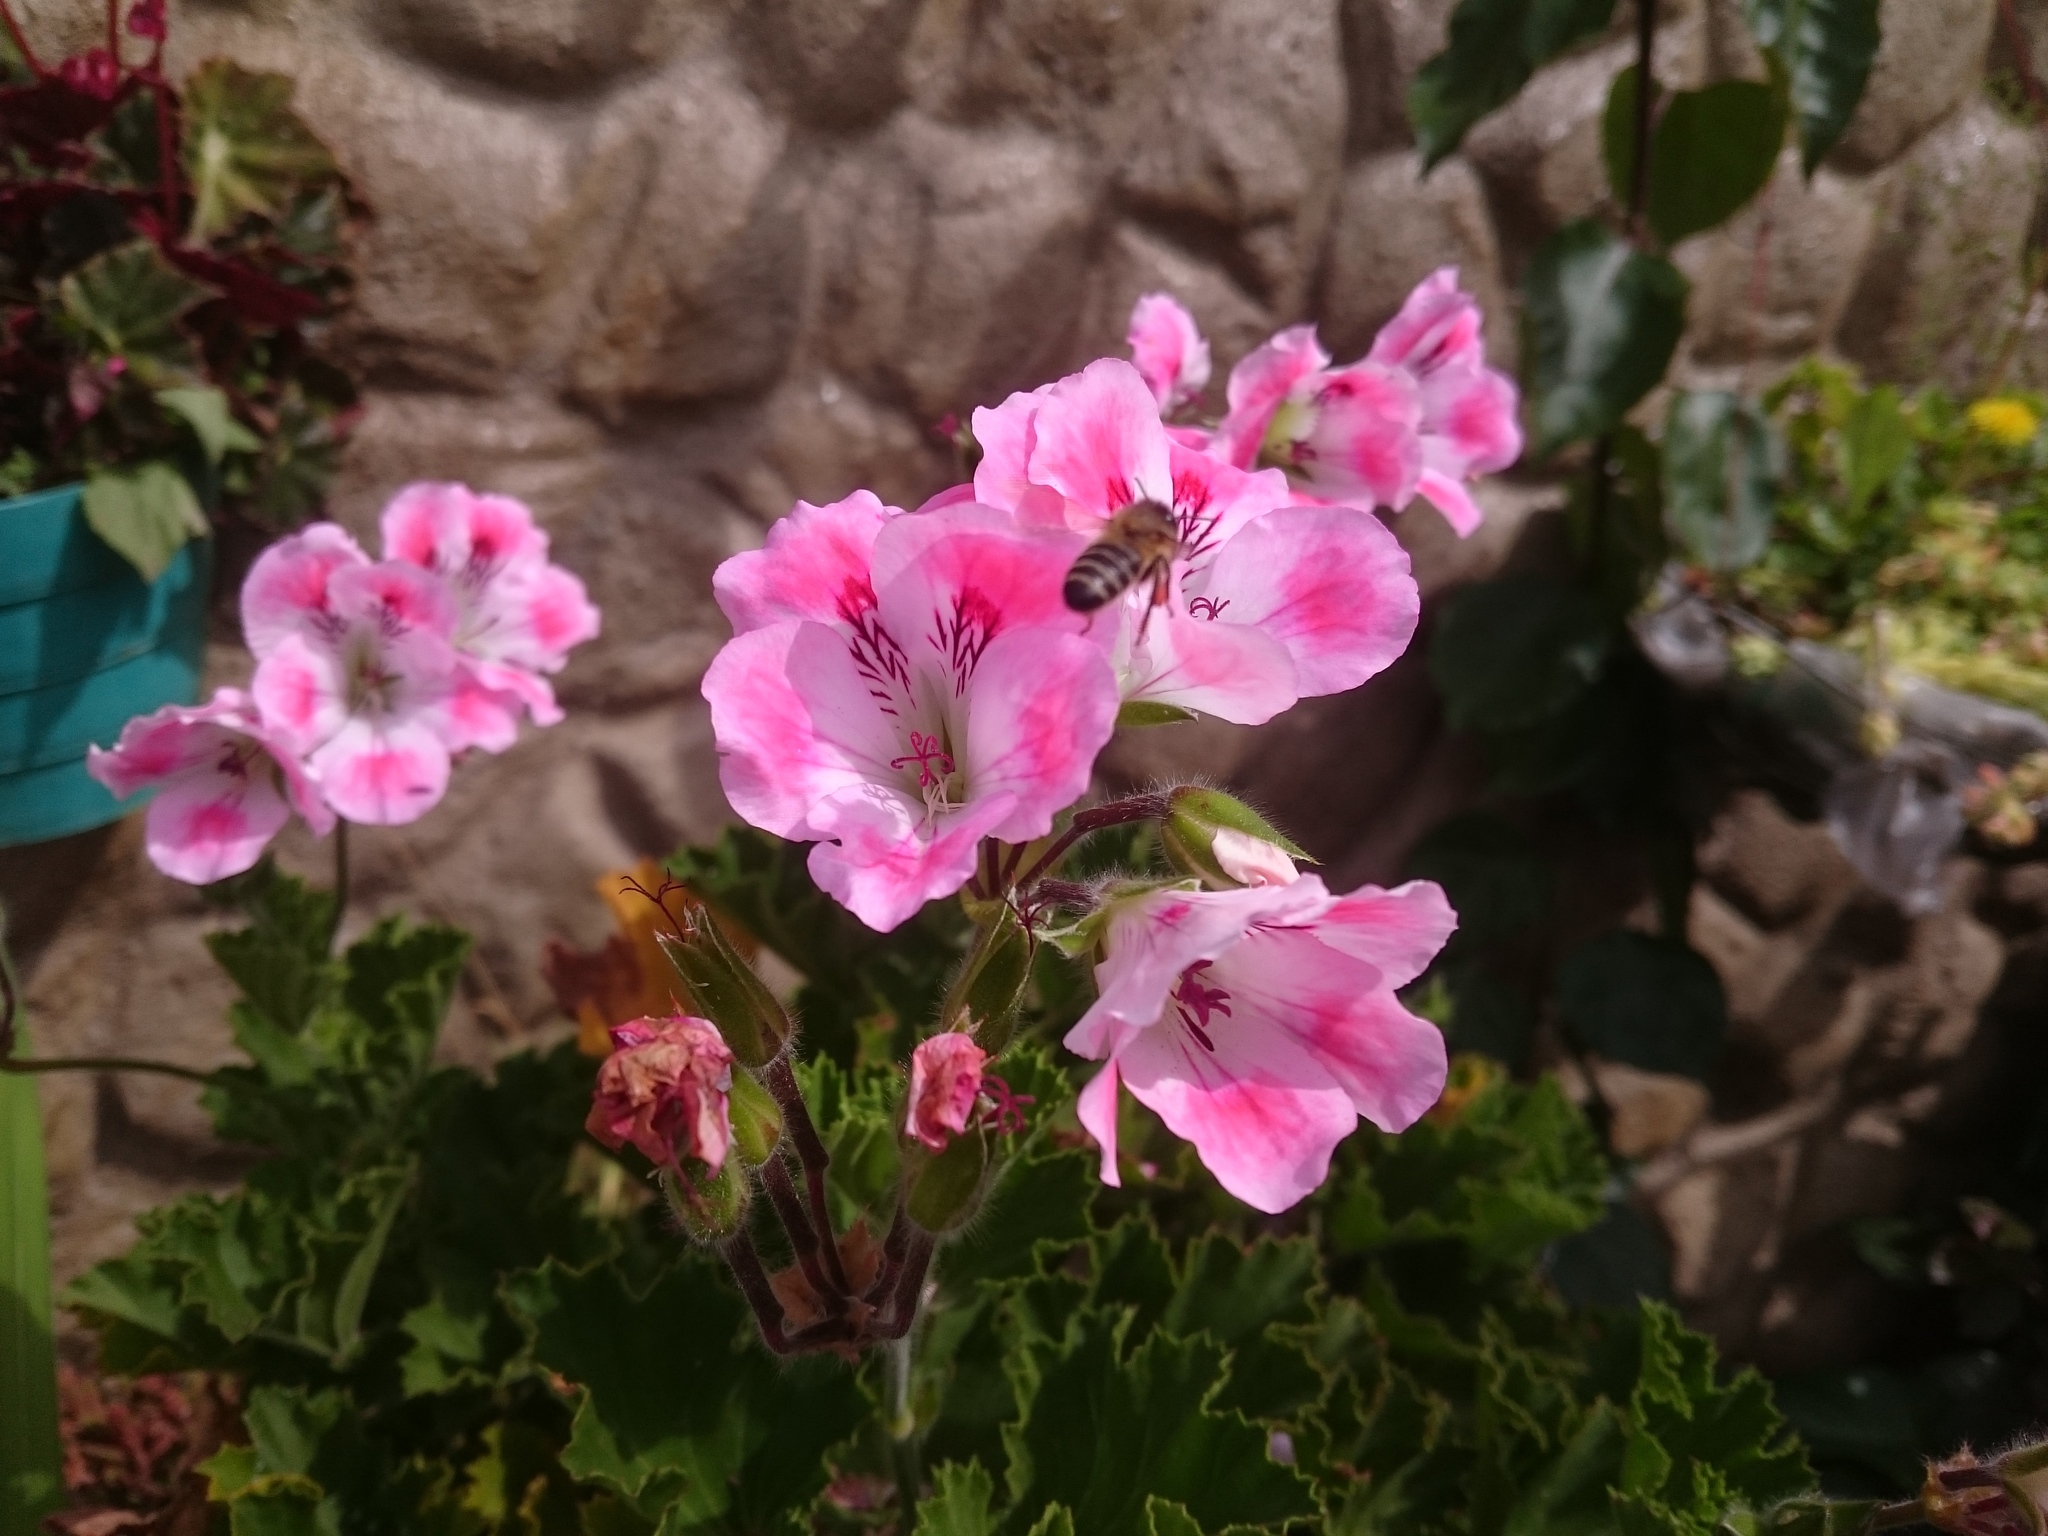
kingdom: Animalia
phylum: Arthropoda
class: Insecta
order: Hymenoptera
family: Apidae
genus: Apis
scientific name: Apis mellifera
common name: Honey bee
